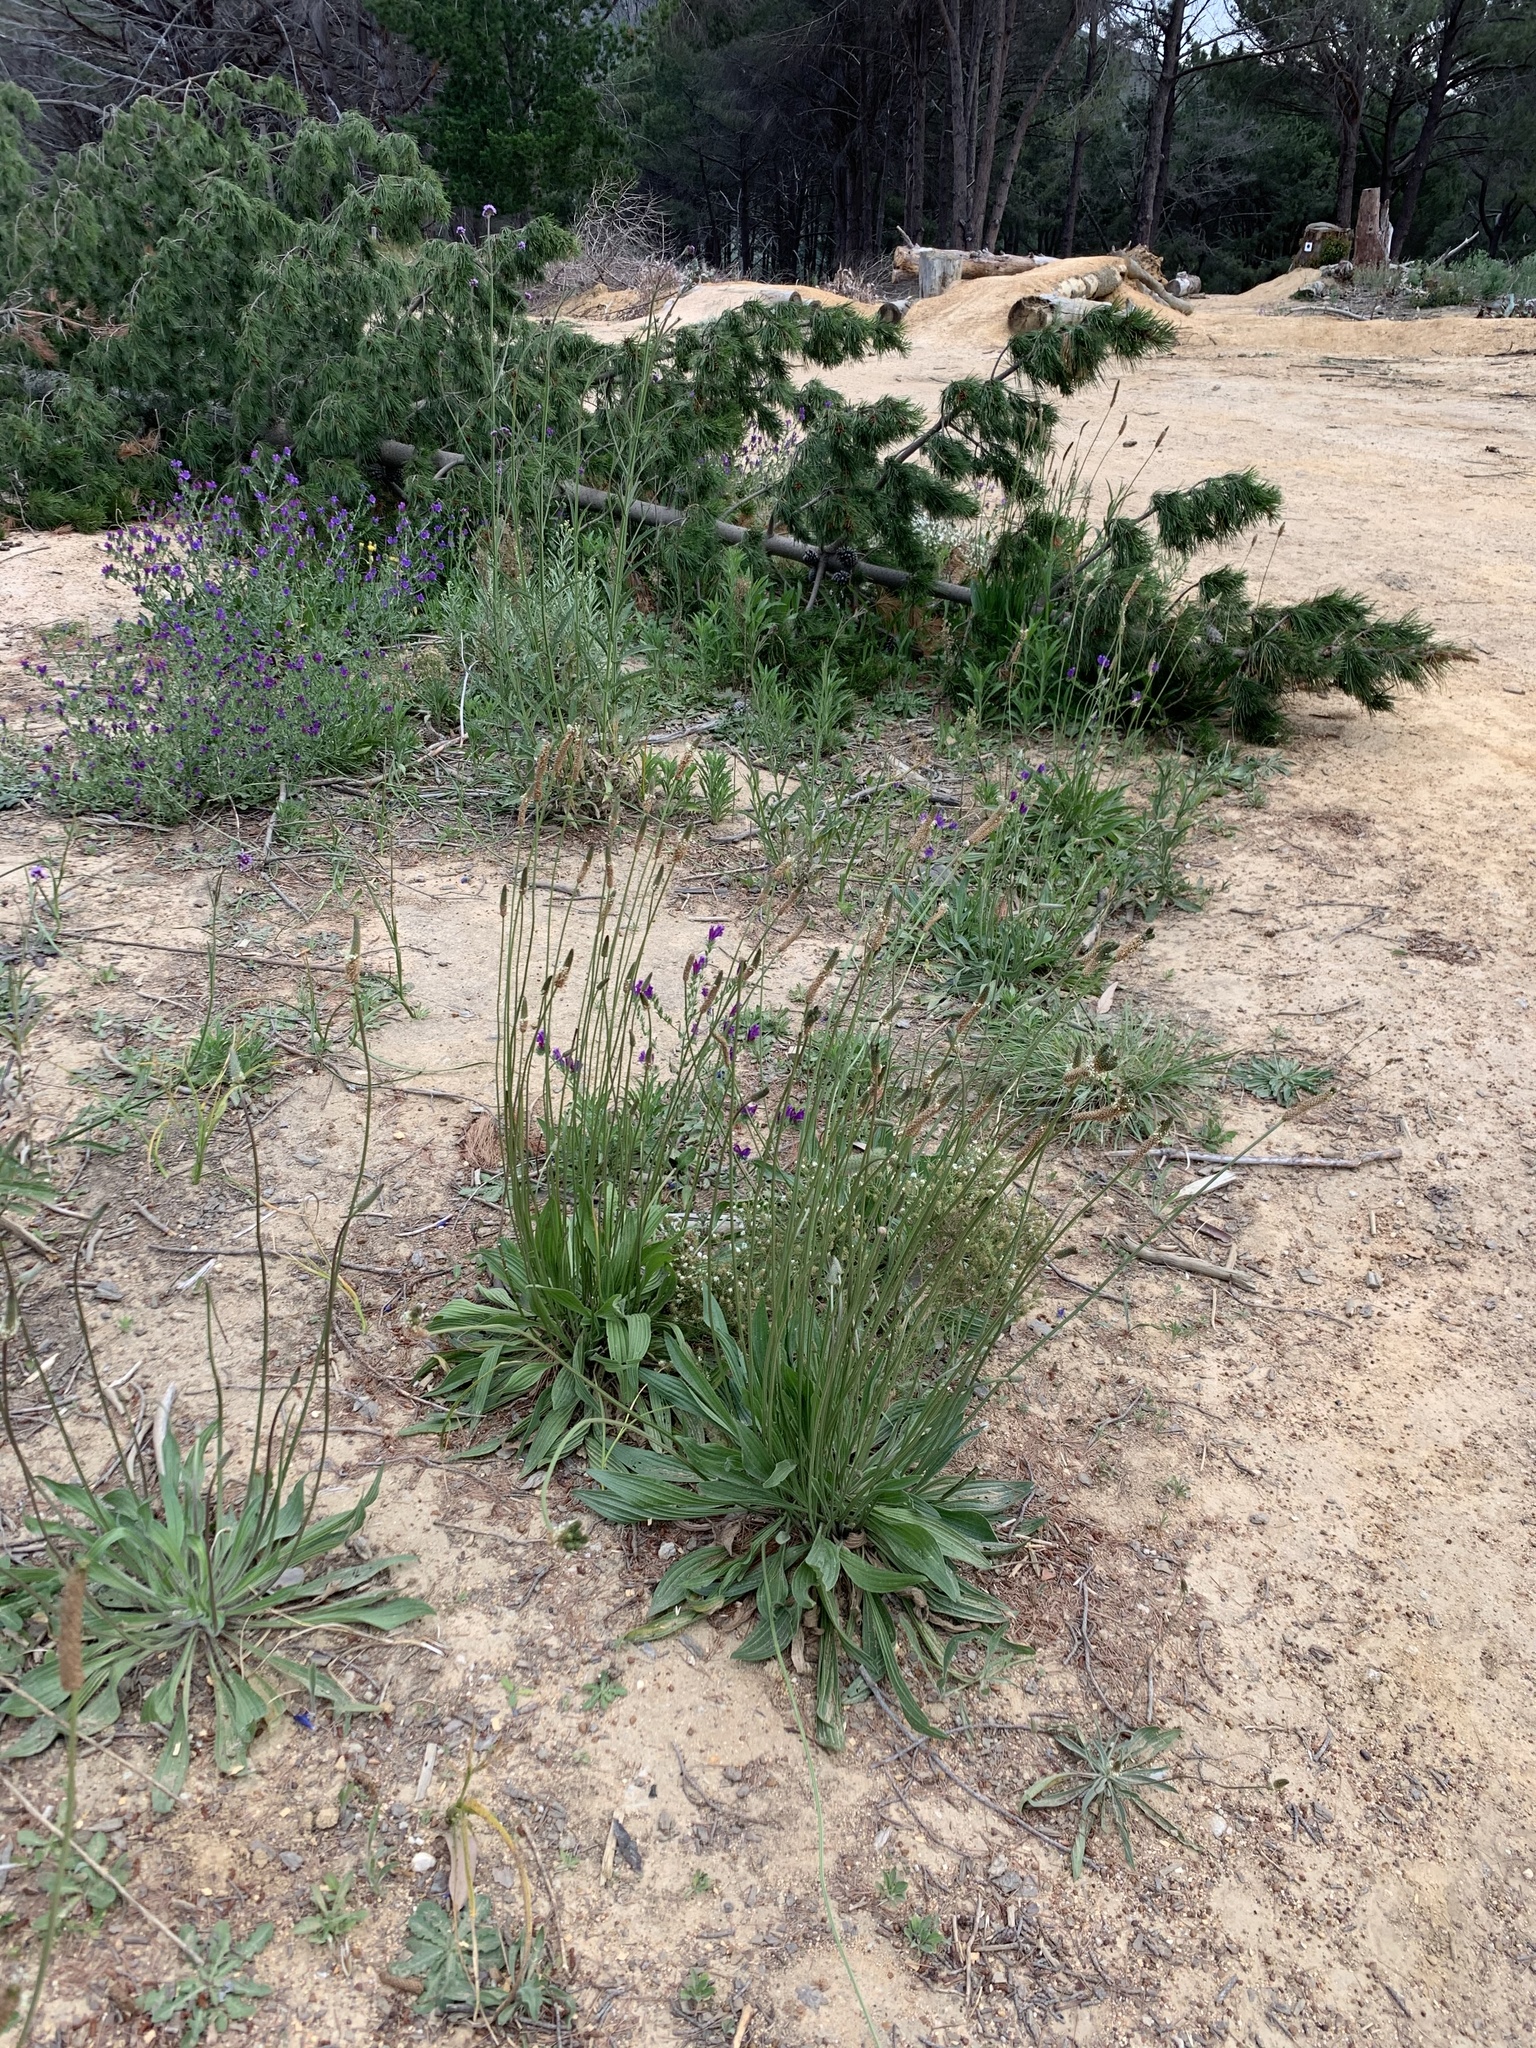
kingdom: Plantae
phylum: Tracheophyta
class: Magnoliopsida
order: Lamiales
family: Plantaginaceae
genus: Plantago
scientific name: Plantago lanceolata
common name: Ribwort plantain
